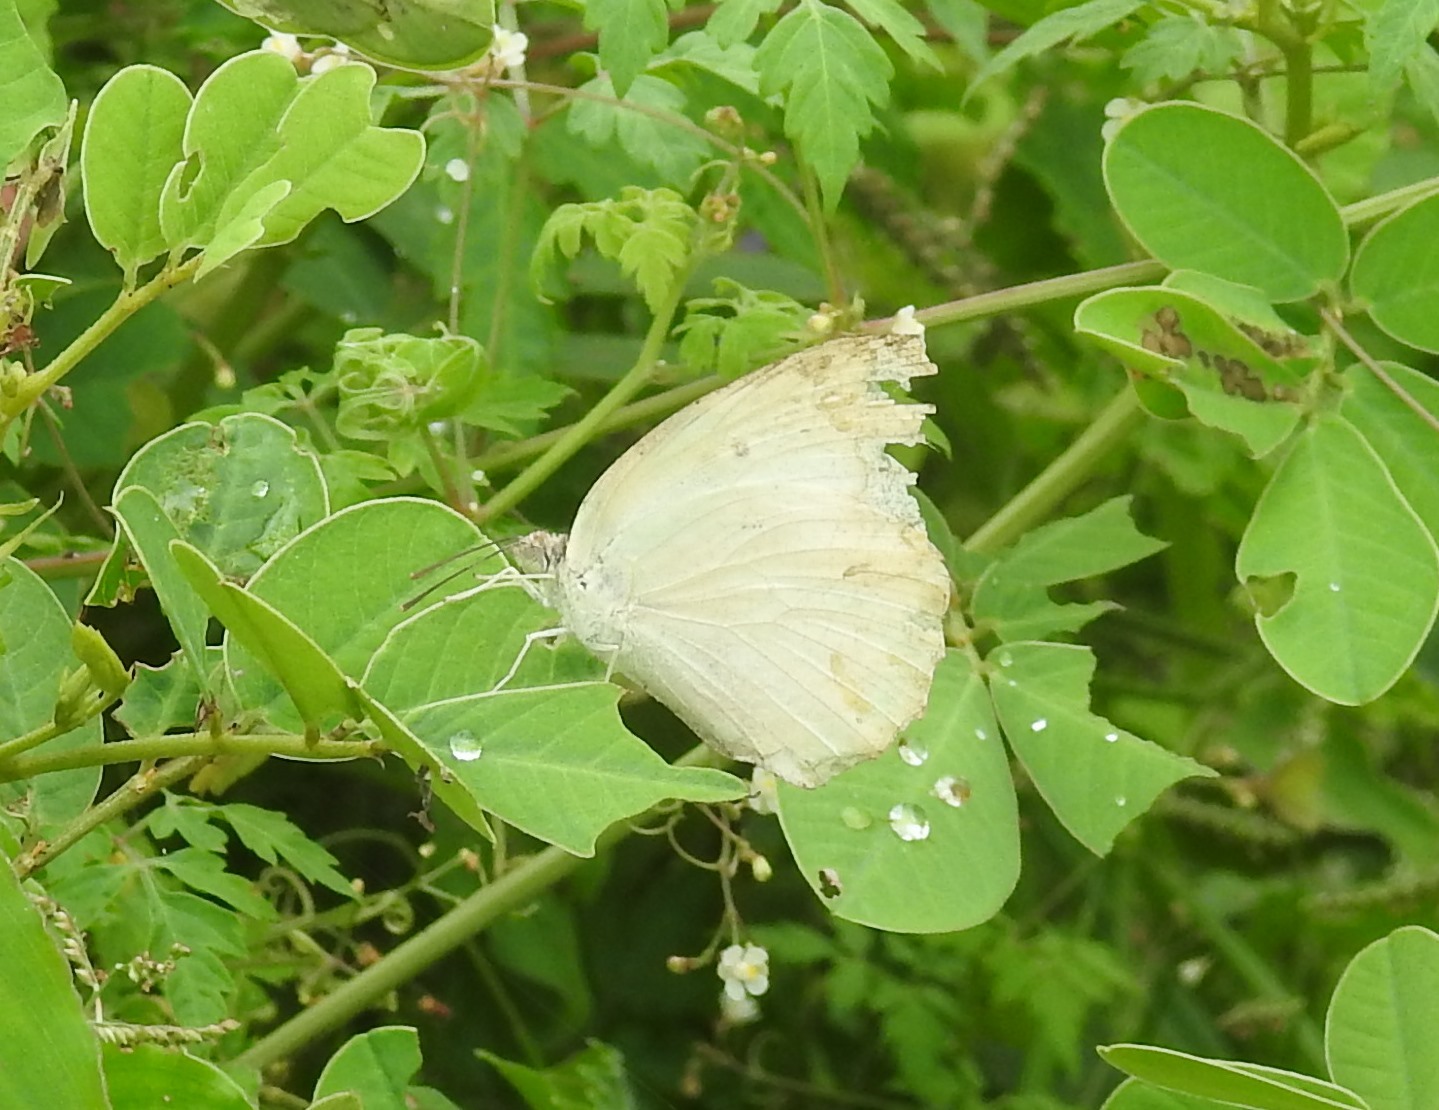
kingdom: Animalia
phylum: Arthropoda
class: Insecta
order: Lepidoptera
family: Pieridae
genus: Catopsilia
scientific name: Catopsilia pomona
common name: Common emigrant
